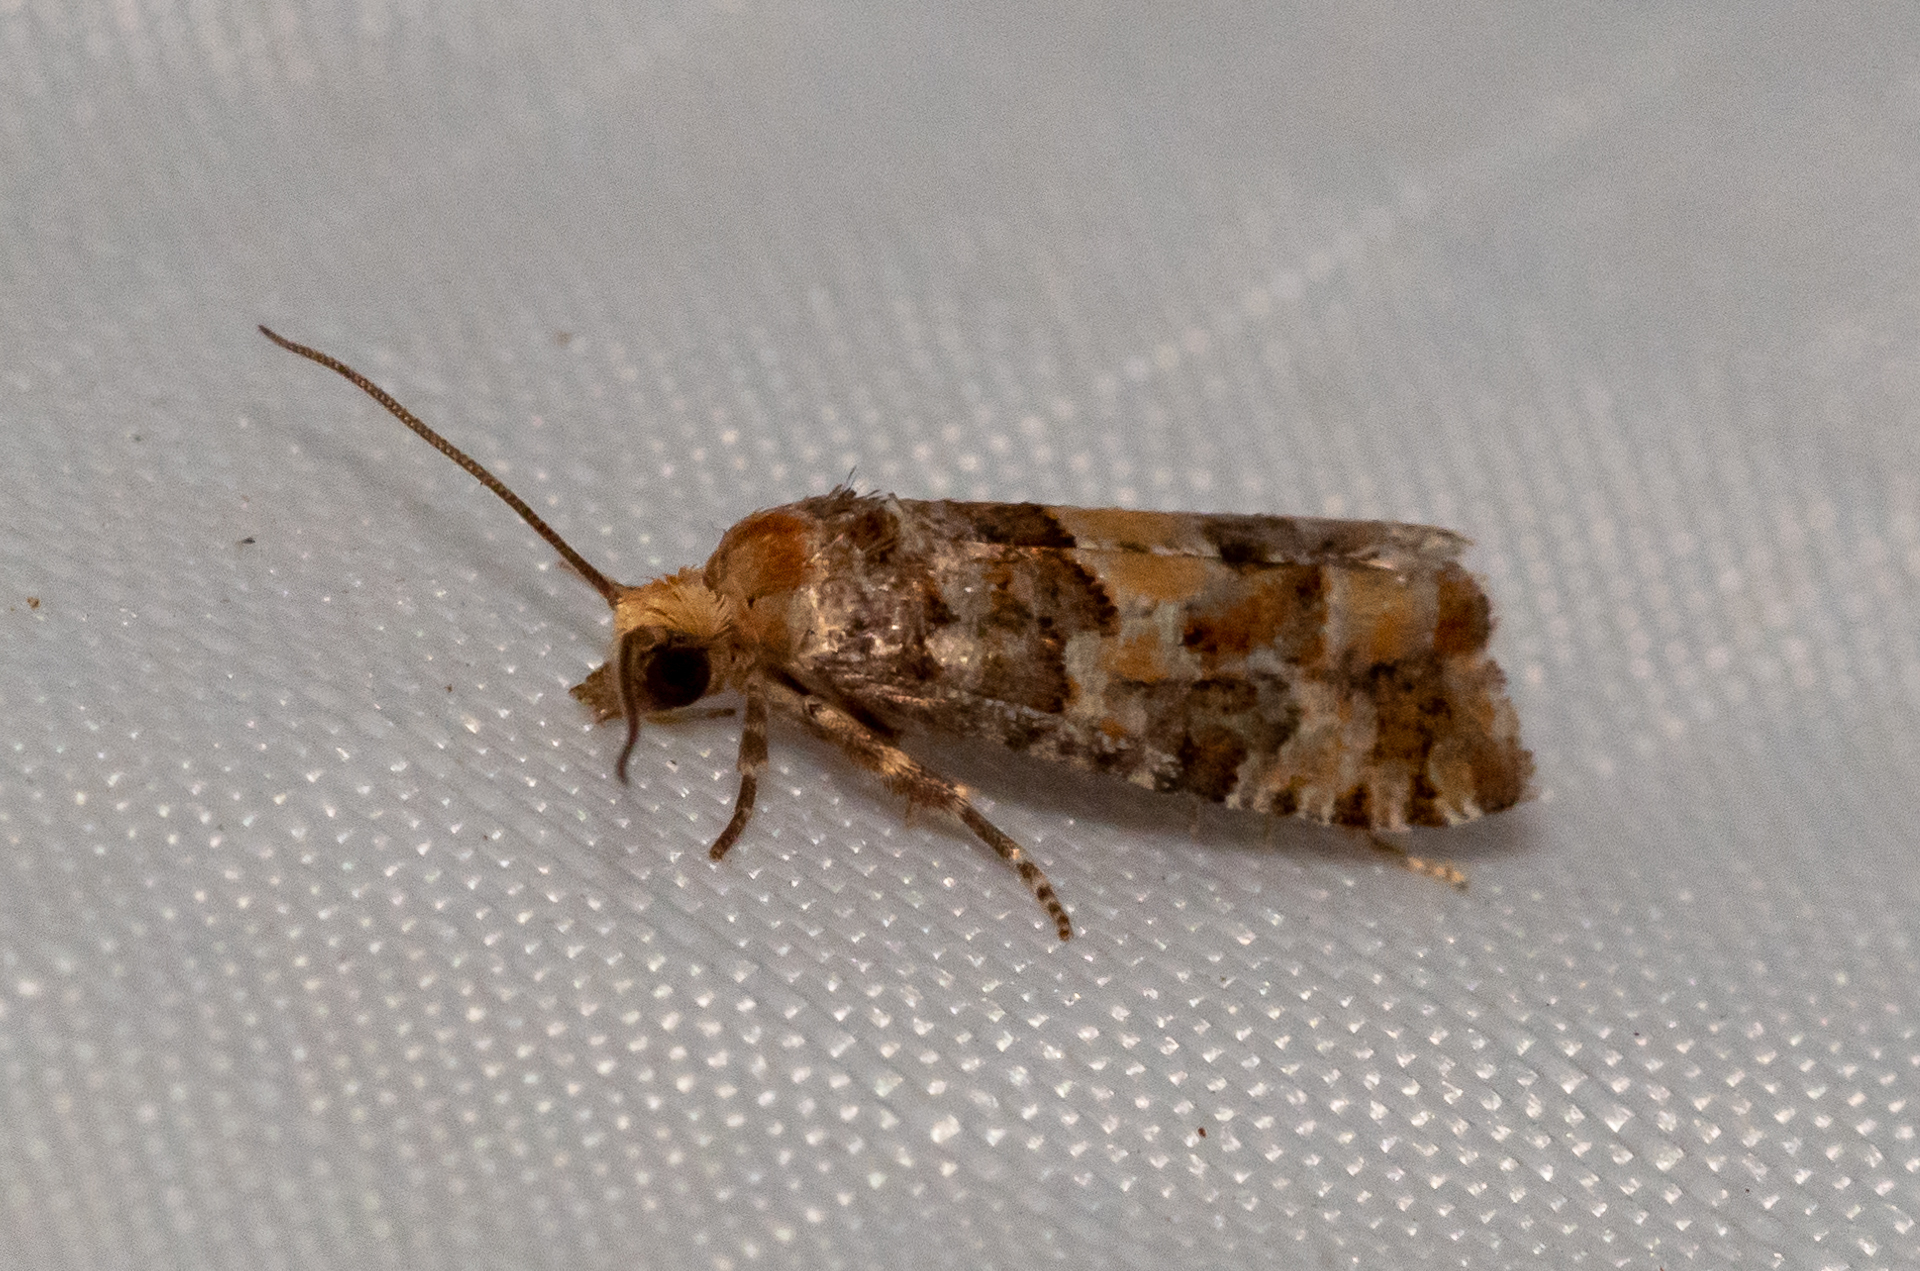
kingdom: Animalia
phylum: Arthropoda
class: Insecta
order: Lepidoptera
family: Tortricidae
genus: Eucopina
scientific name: Eucopina tocullionana
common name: White pinecone borer moth
